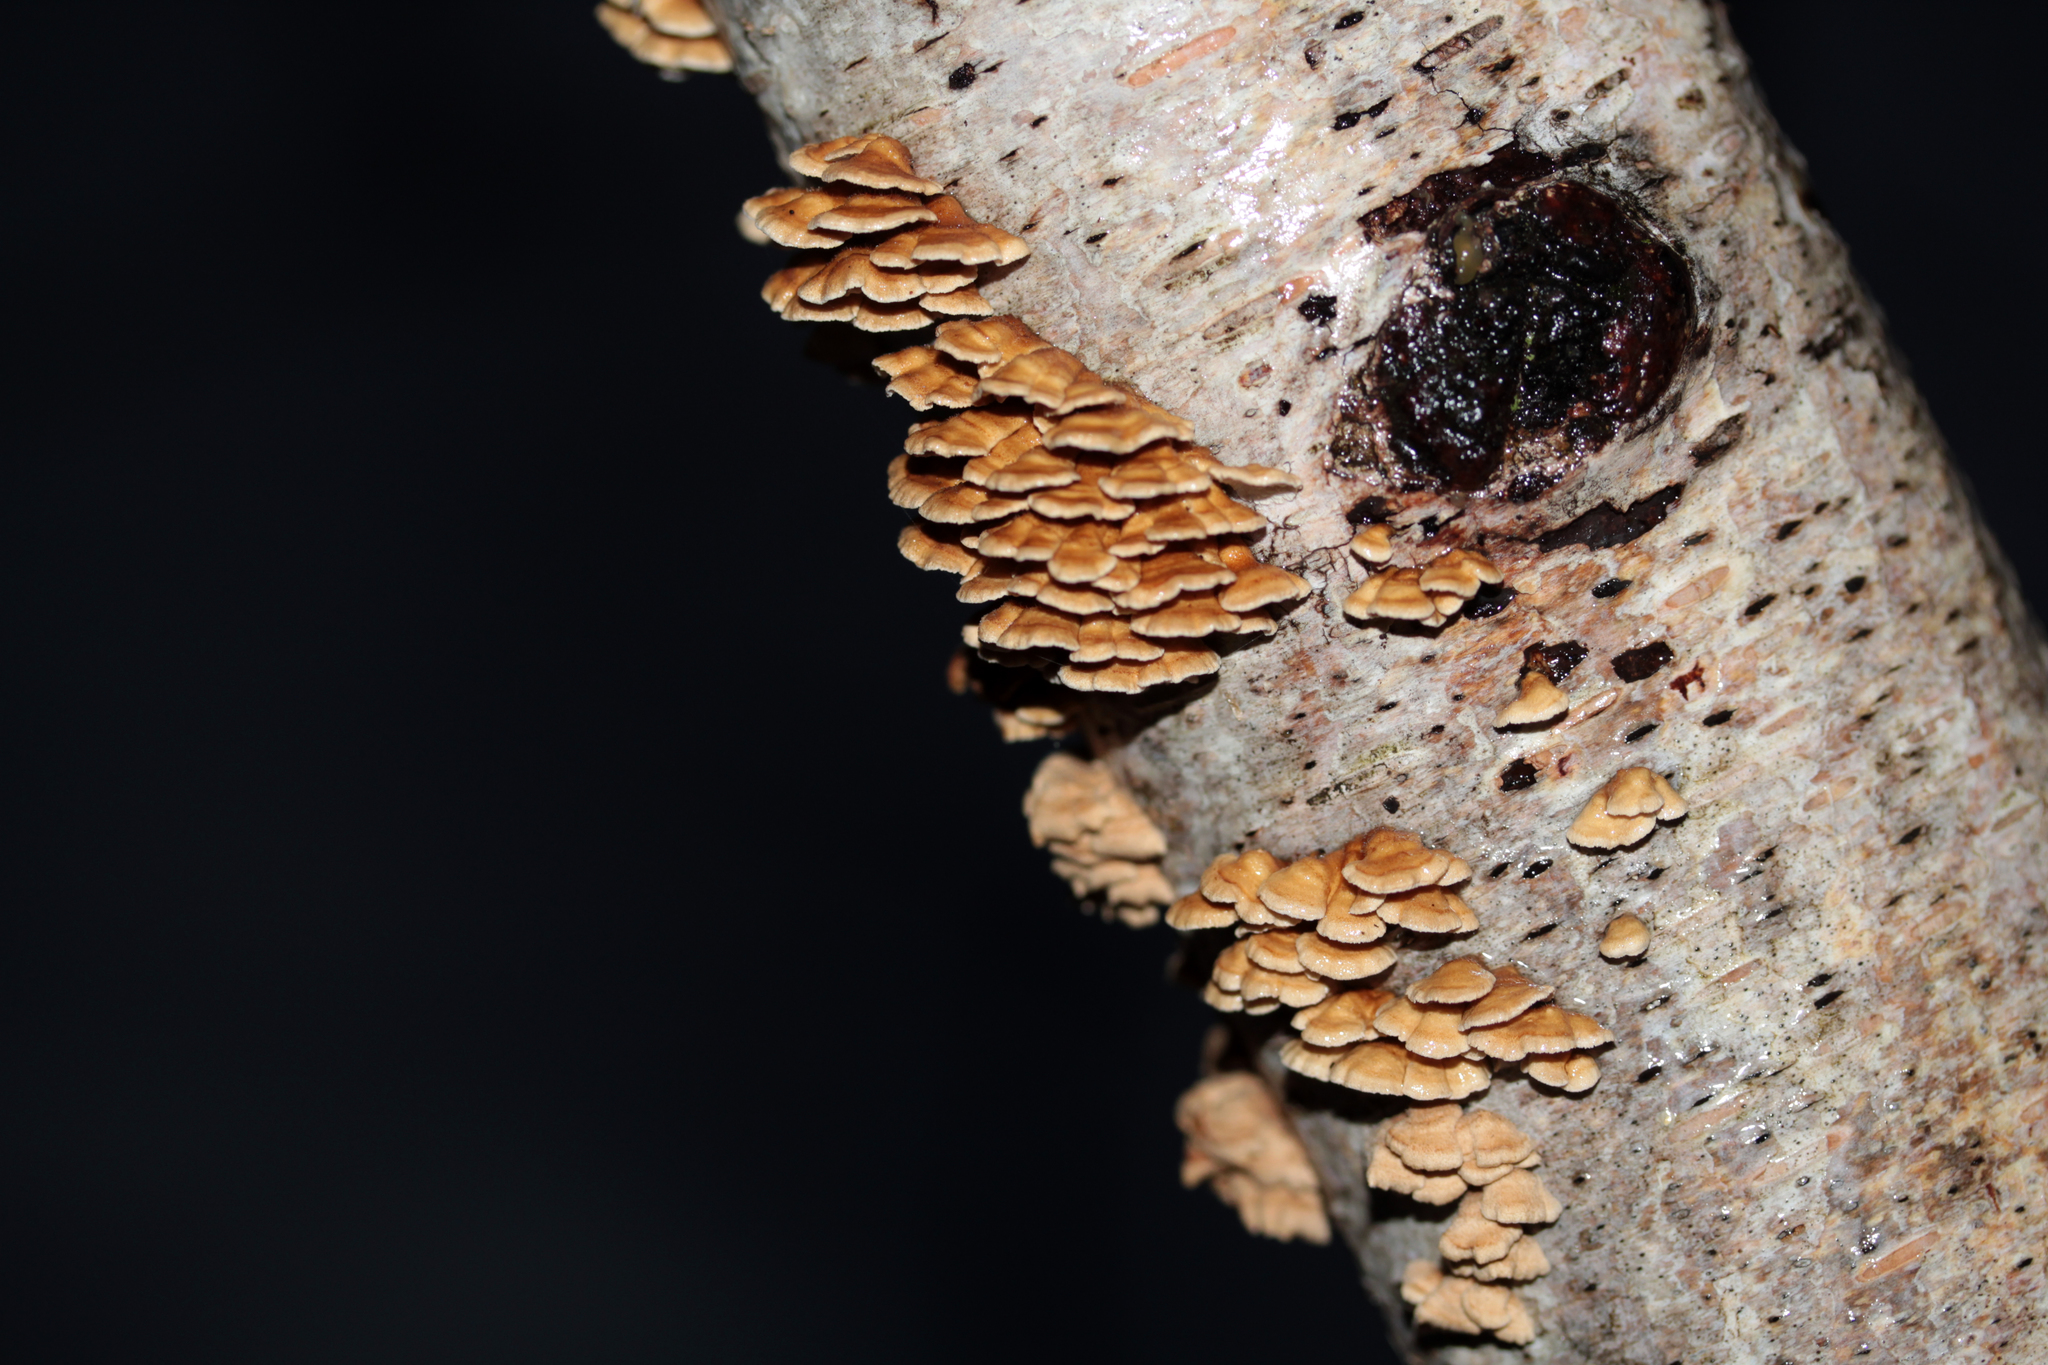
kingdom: Fungi
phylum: Basidiomycota
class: Agaricomycetes
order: Amylocorticiales
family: Amylocorticiaceae
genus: Plicaturopsis
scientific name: Plicaturopsis crispa
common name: Crimped gill
